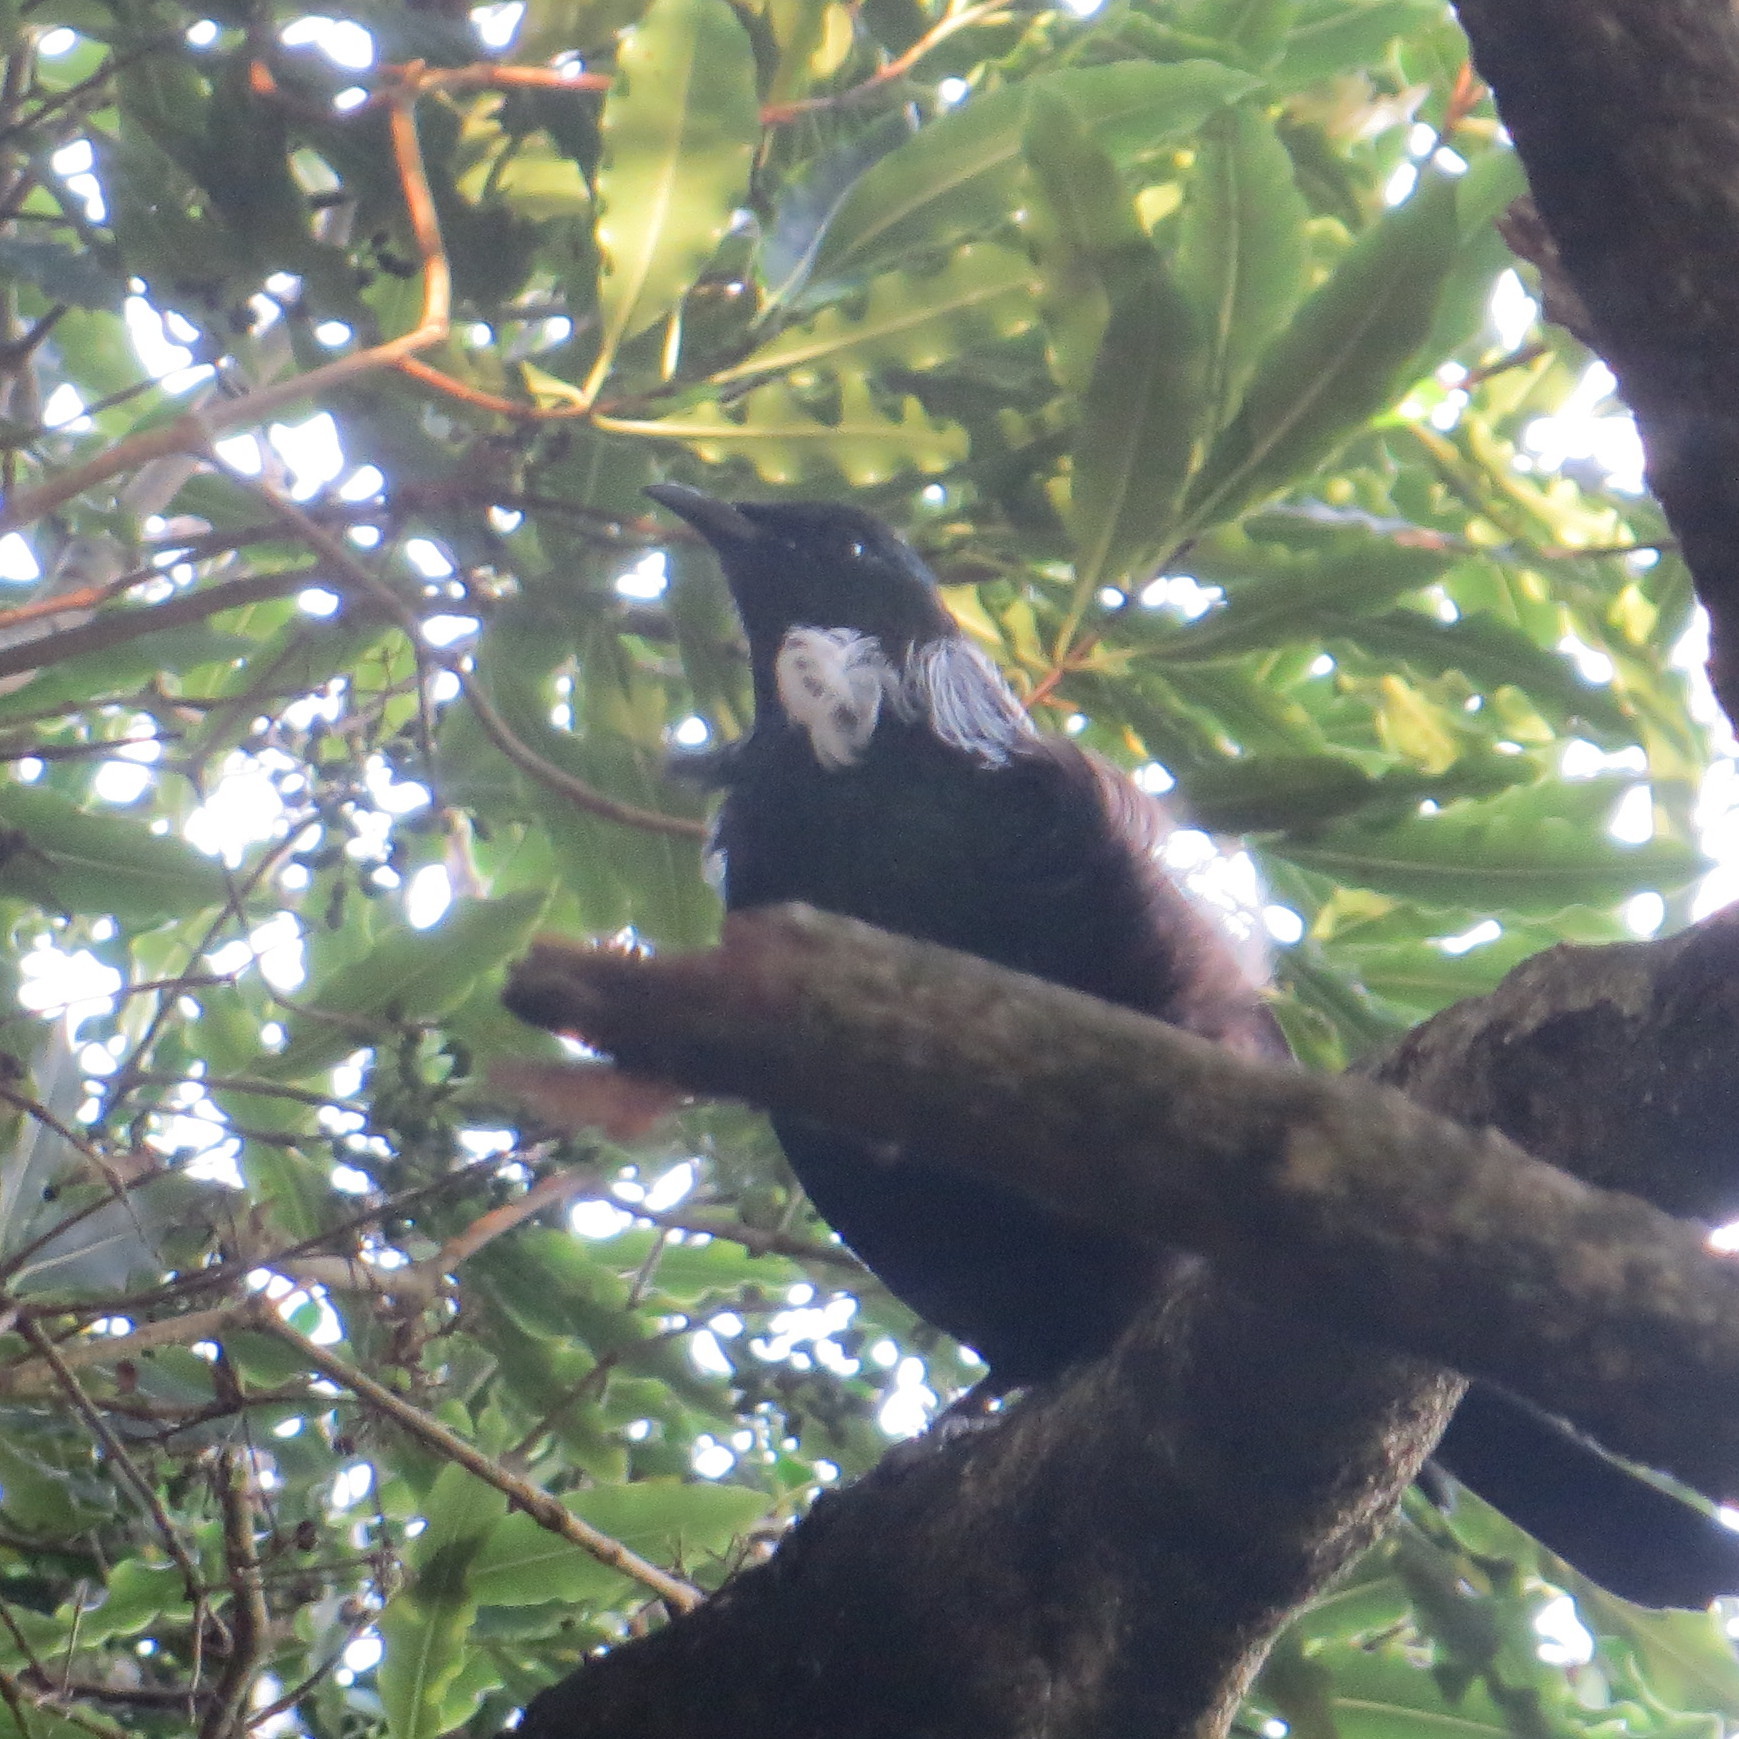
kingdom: Animalia
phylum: Chordata
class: Aves
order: Passeriformes
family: Meliphagidae
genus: Prosthemadera
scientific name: Prosthemadera novaeseelandiae
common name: Tui
